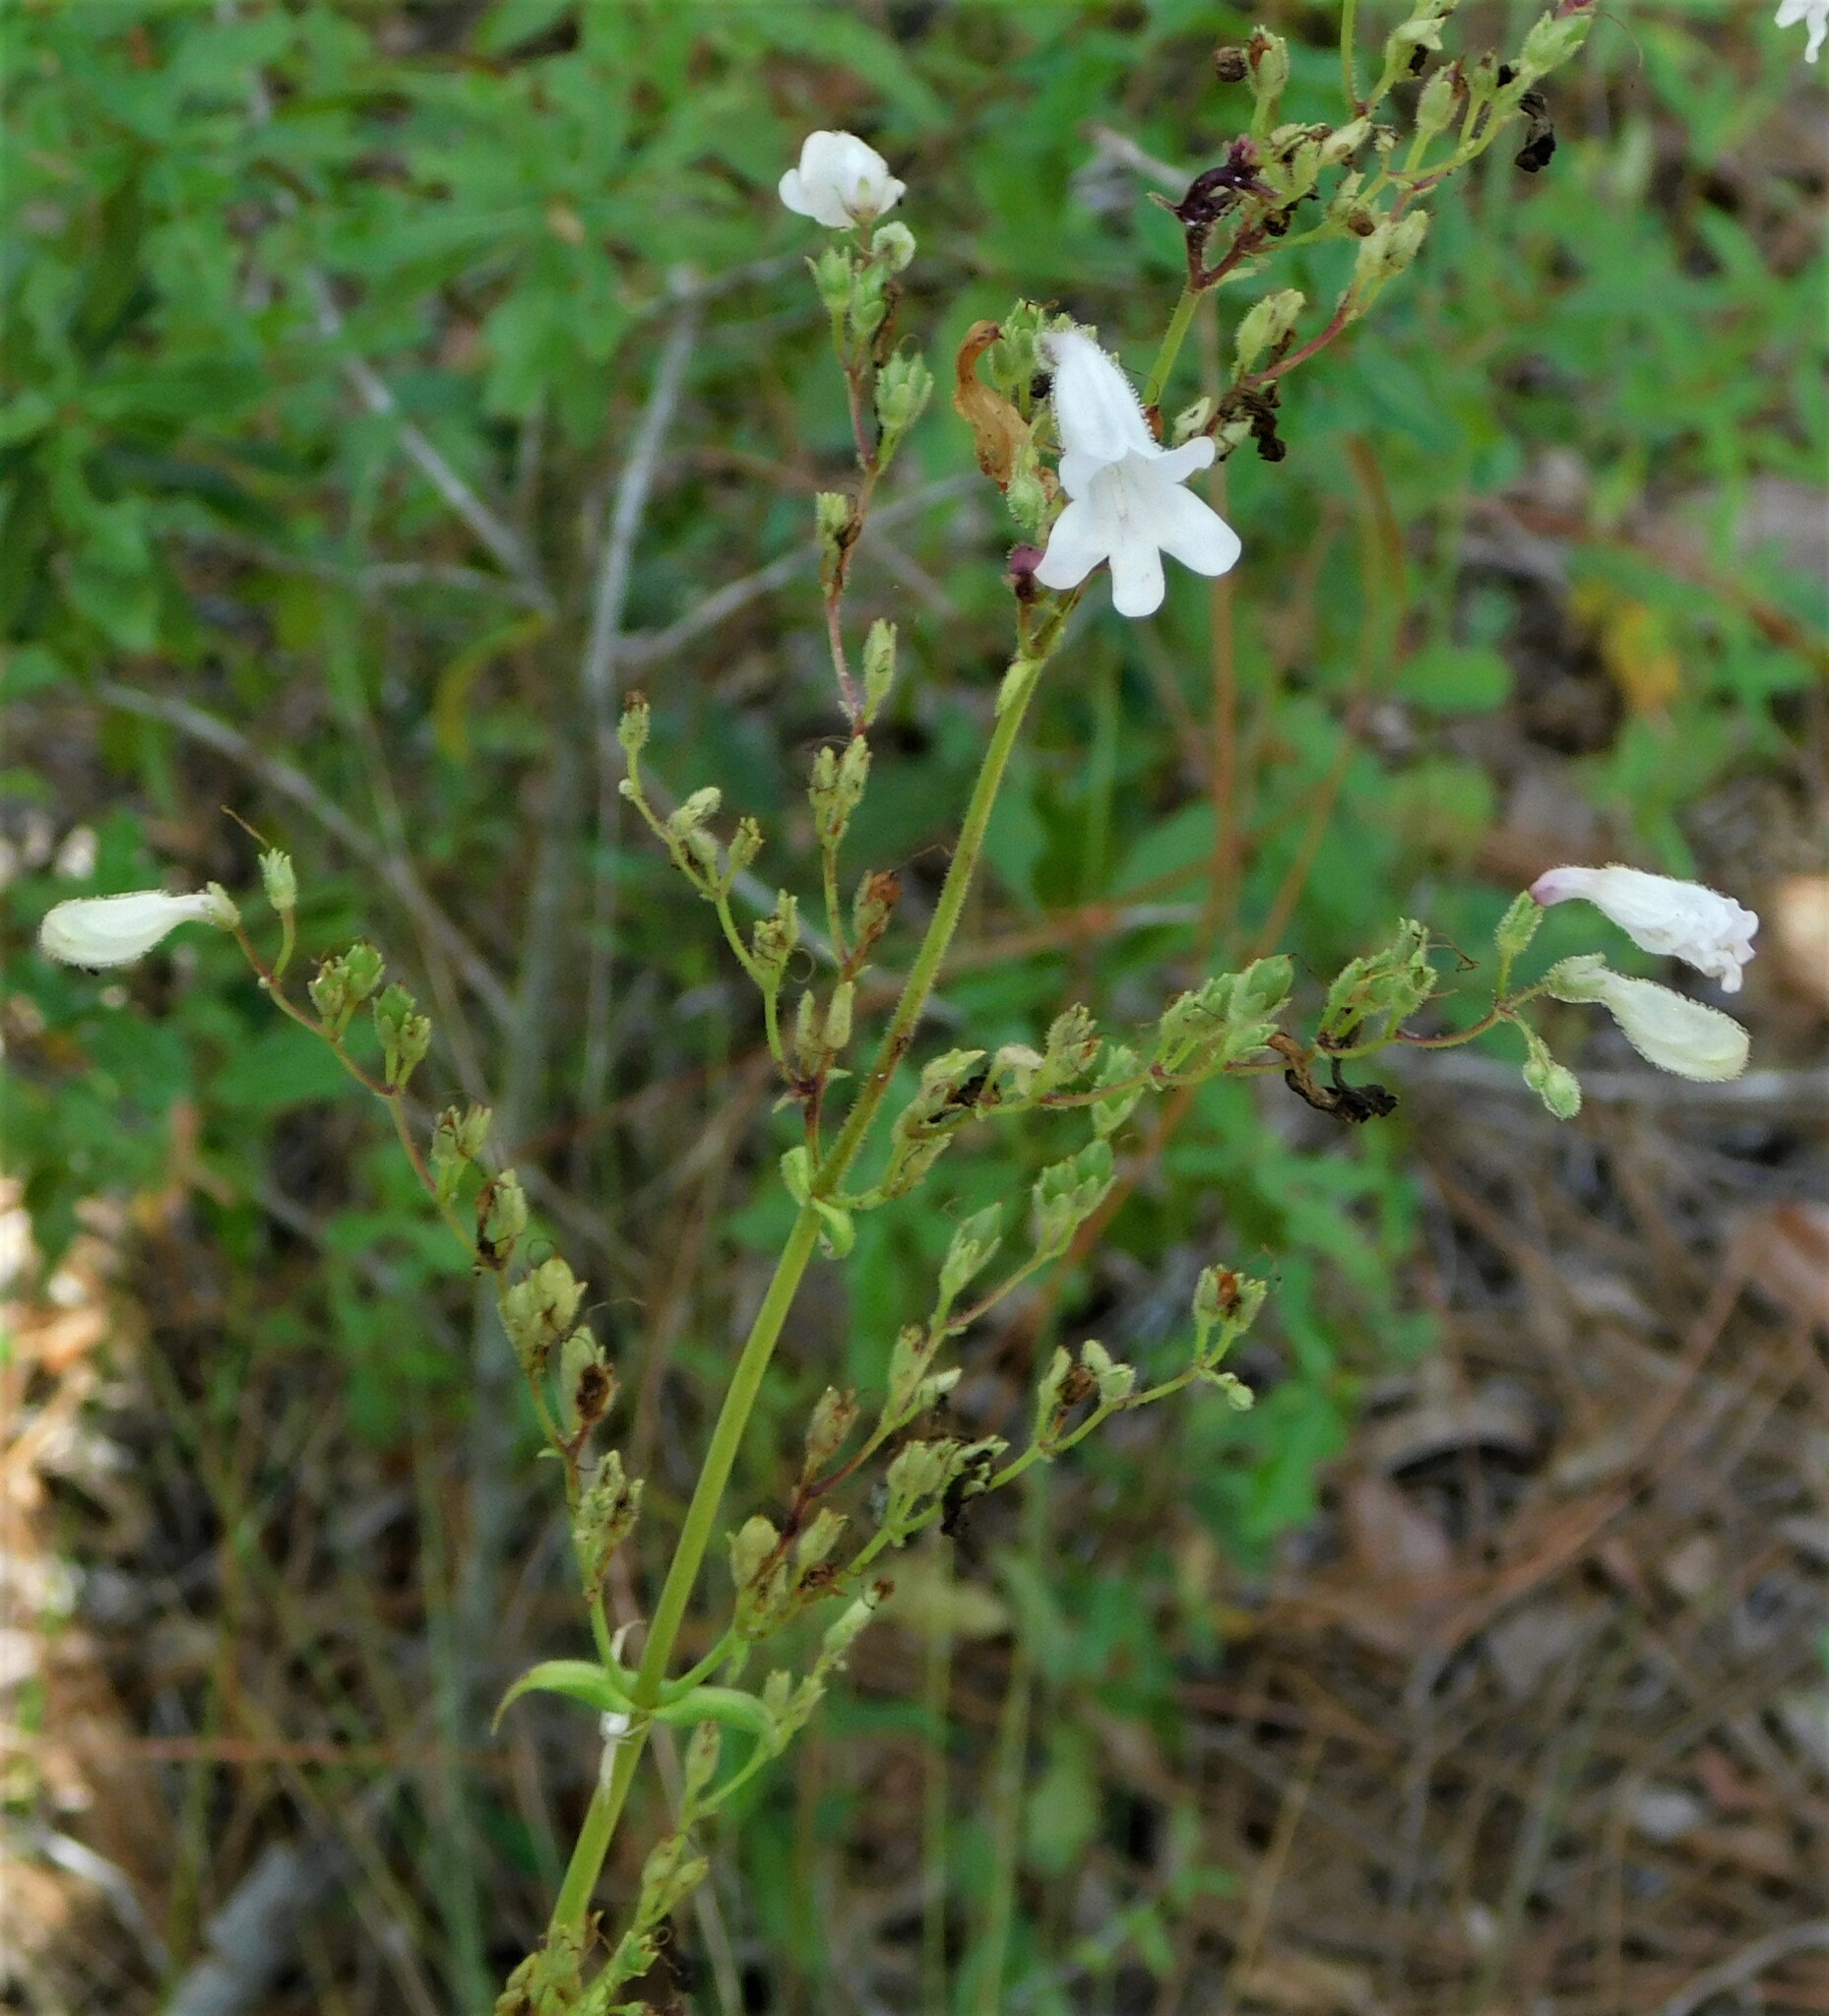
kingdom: Plantae
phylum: Tracheophyta
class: Magnoliopsida
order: Lamiales
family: Plantaginaceae
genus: Penstemon
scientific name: Penstemon multiflorus
